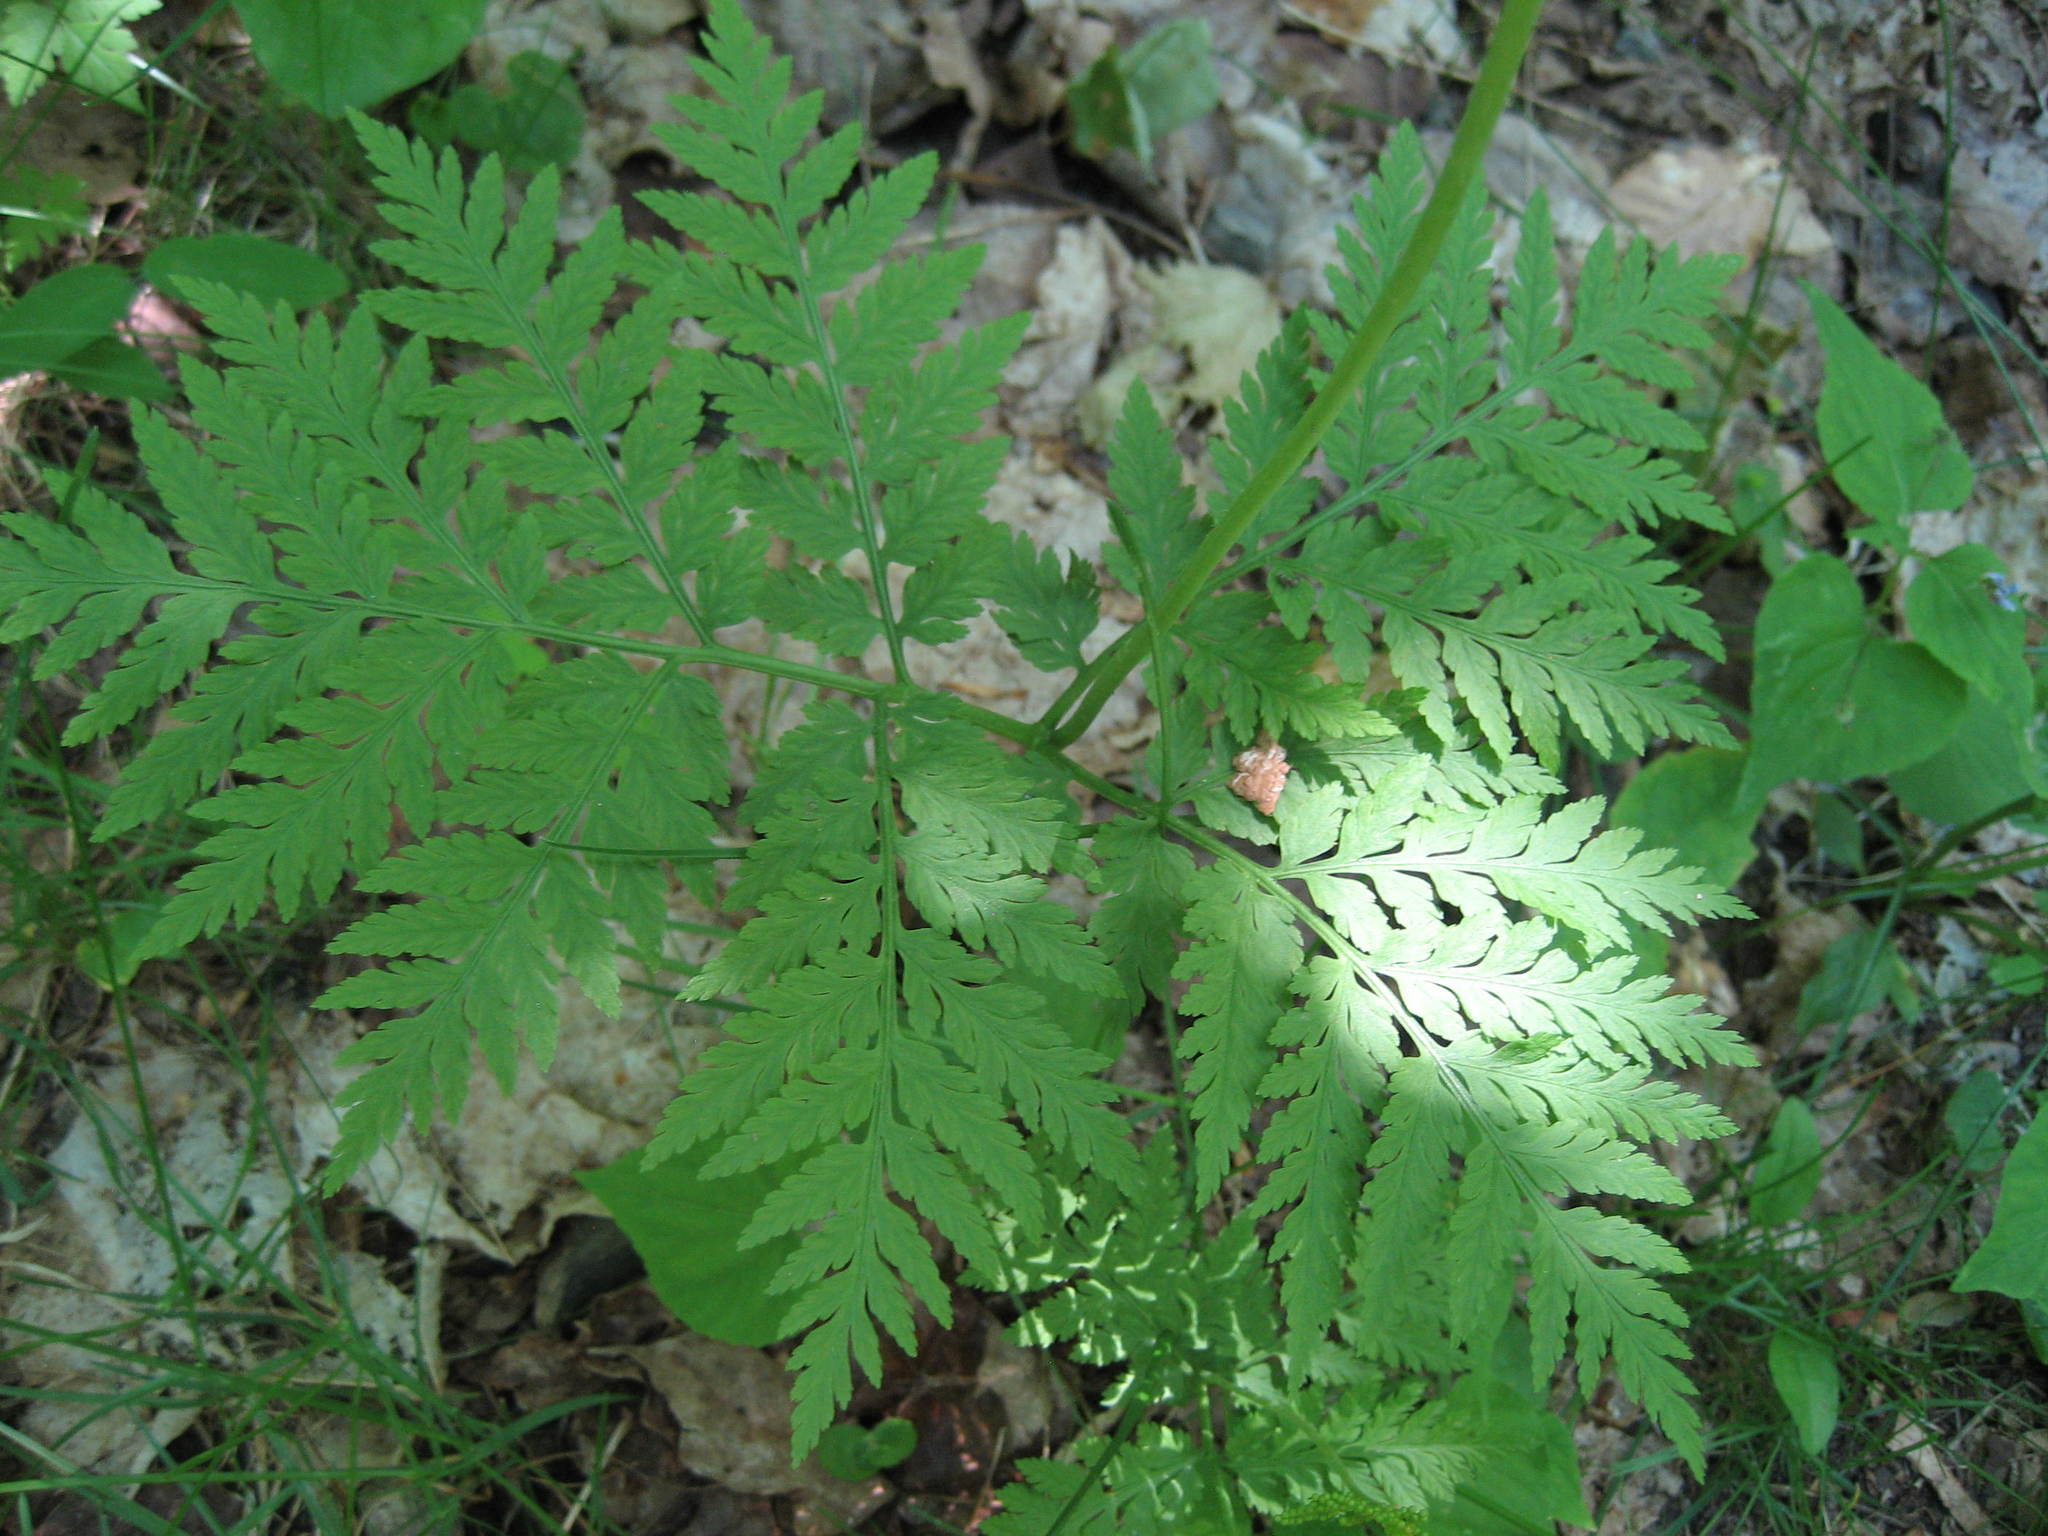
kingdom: Plantae
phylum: Tracheophyta
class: Polypodiopsida
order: Ophioglossales
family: Ophioglossaceae
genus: Botrypus
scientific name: Botrypus virginianus
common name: Common grapefern
